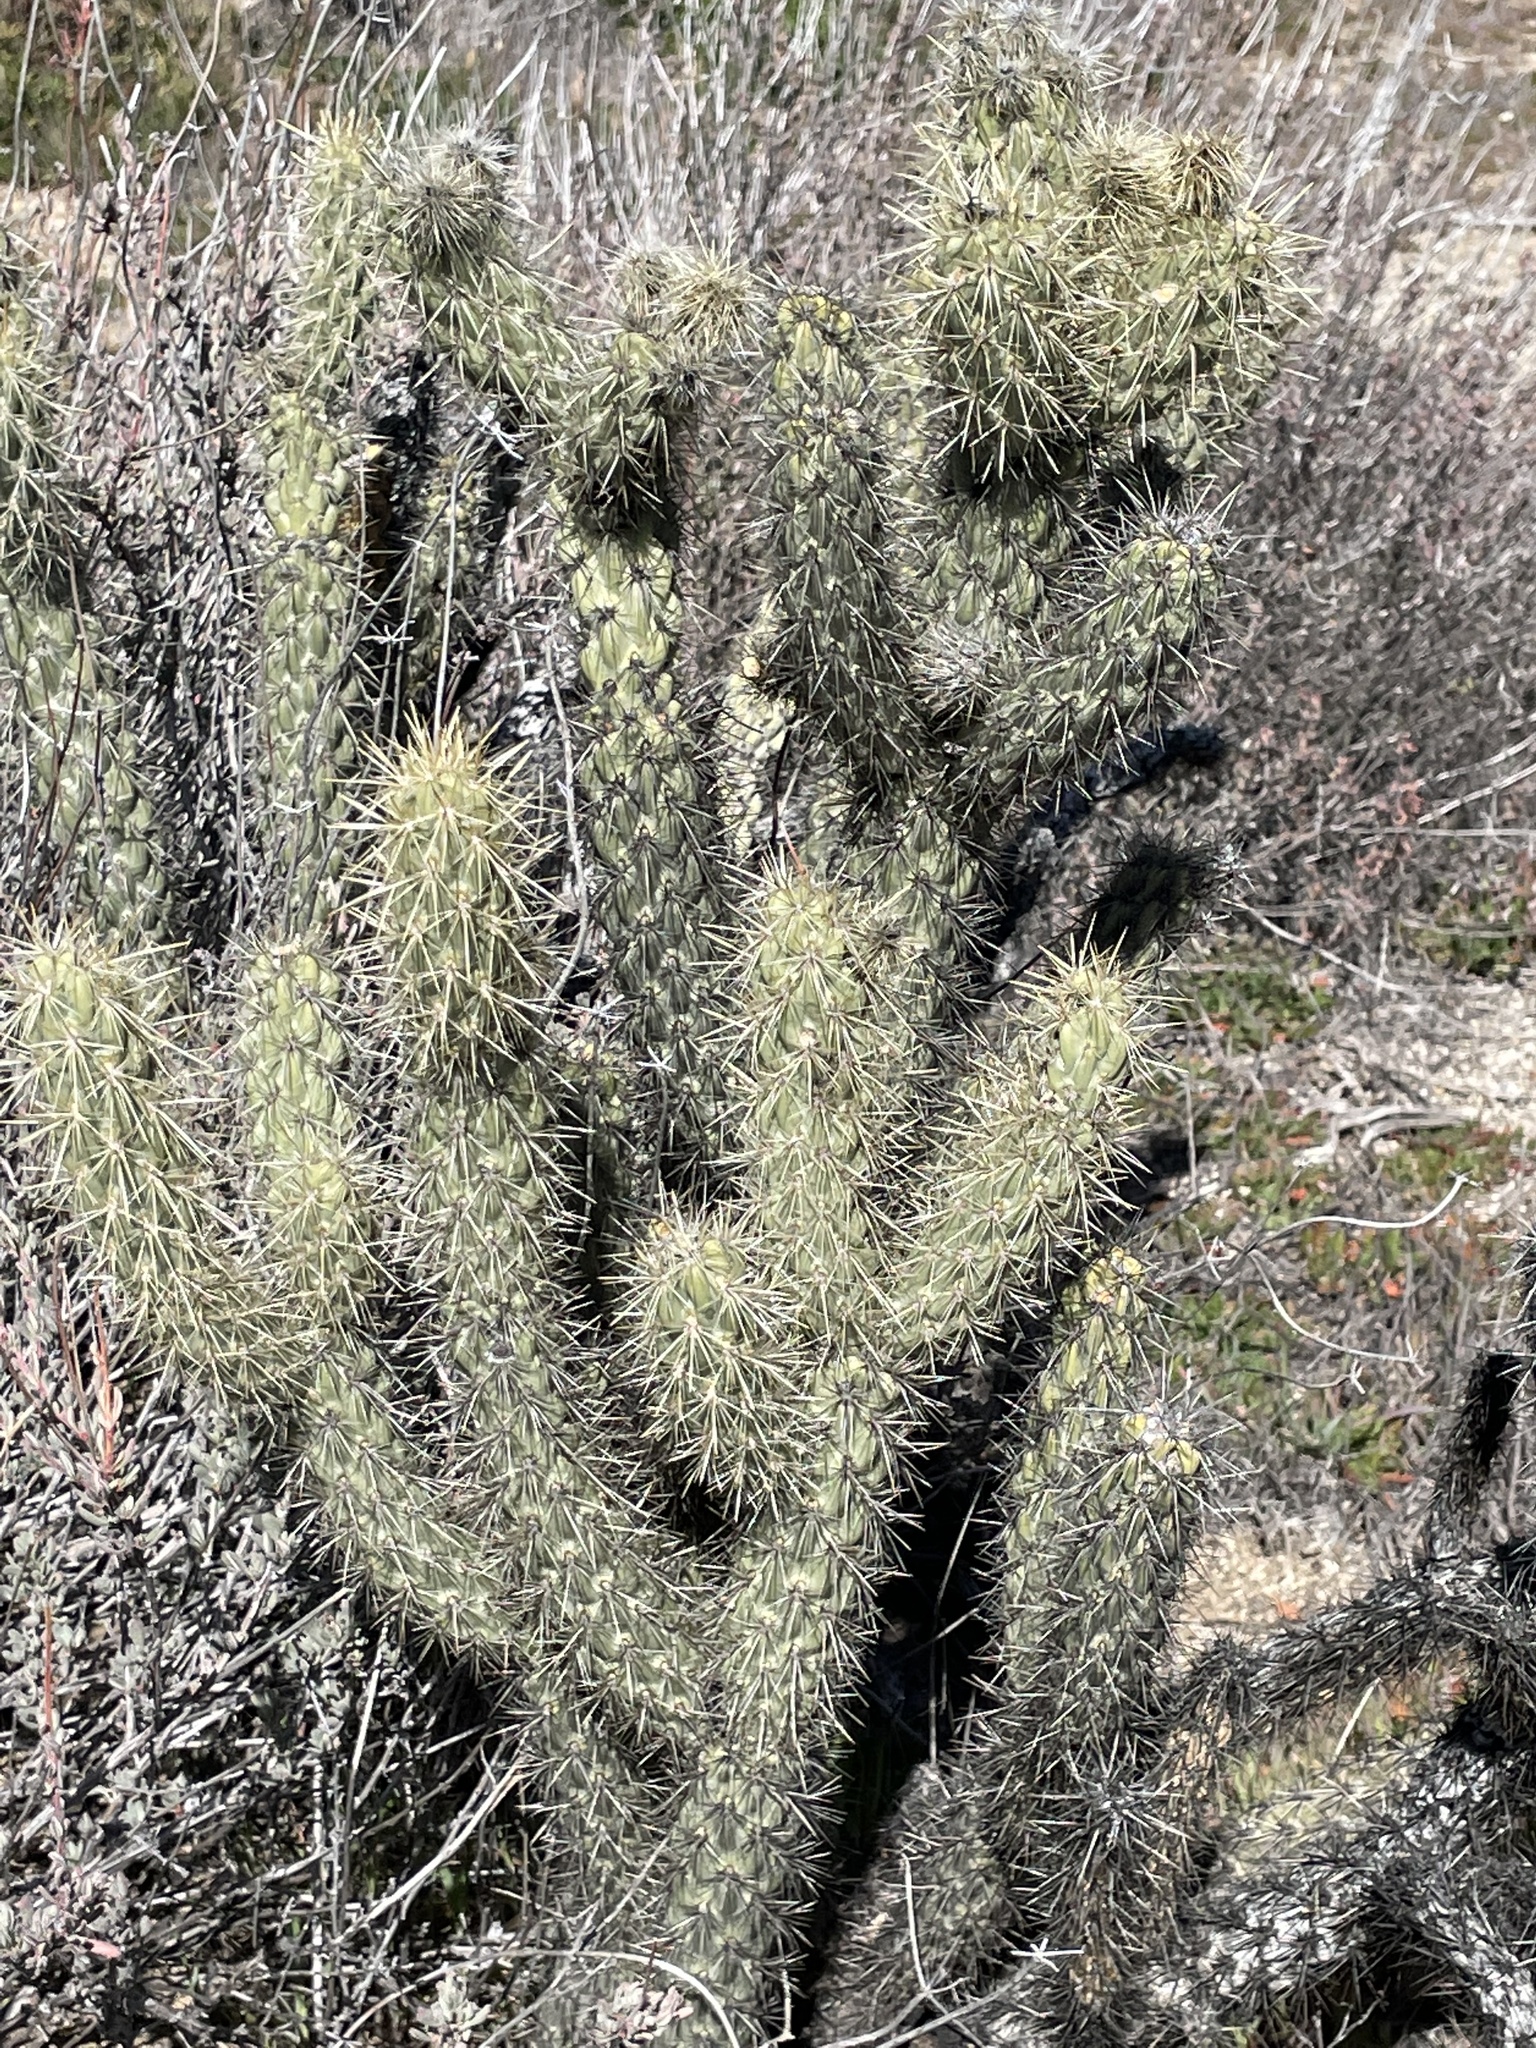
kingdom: Plantae
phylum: Tracheophyta
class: Magnoliopsida
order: Caryophyllales
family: Cactaceae
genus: Cylindropuntia
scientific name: Cylindropuntia ganderi
